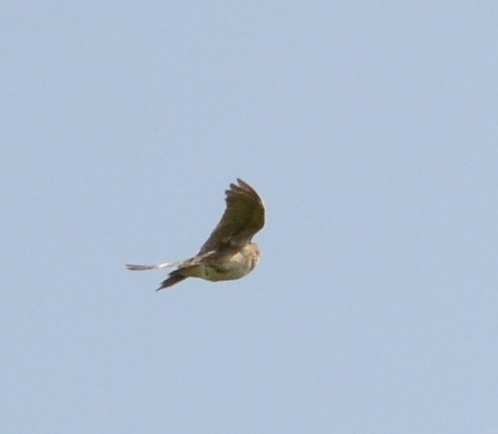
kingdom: Animalia
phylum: Chordata
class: Aves
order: Passeriformes
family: Alaudidae
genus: Alauda
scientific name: Alauda arvensis
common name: Eurasian skylark
